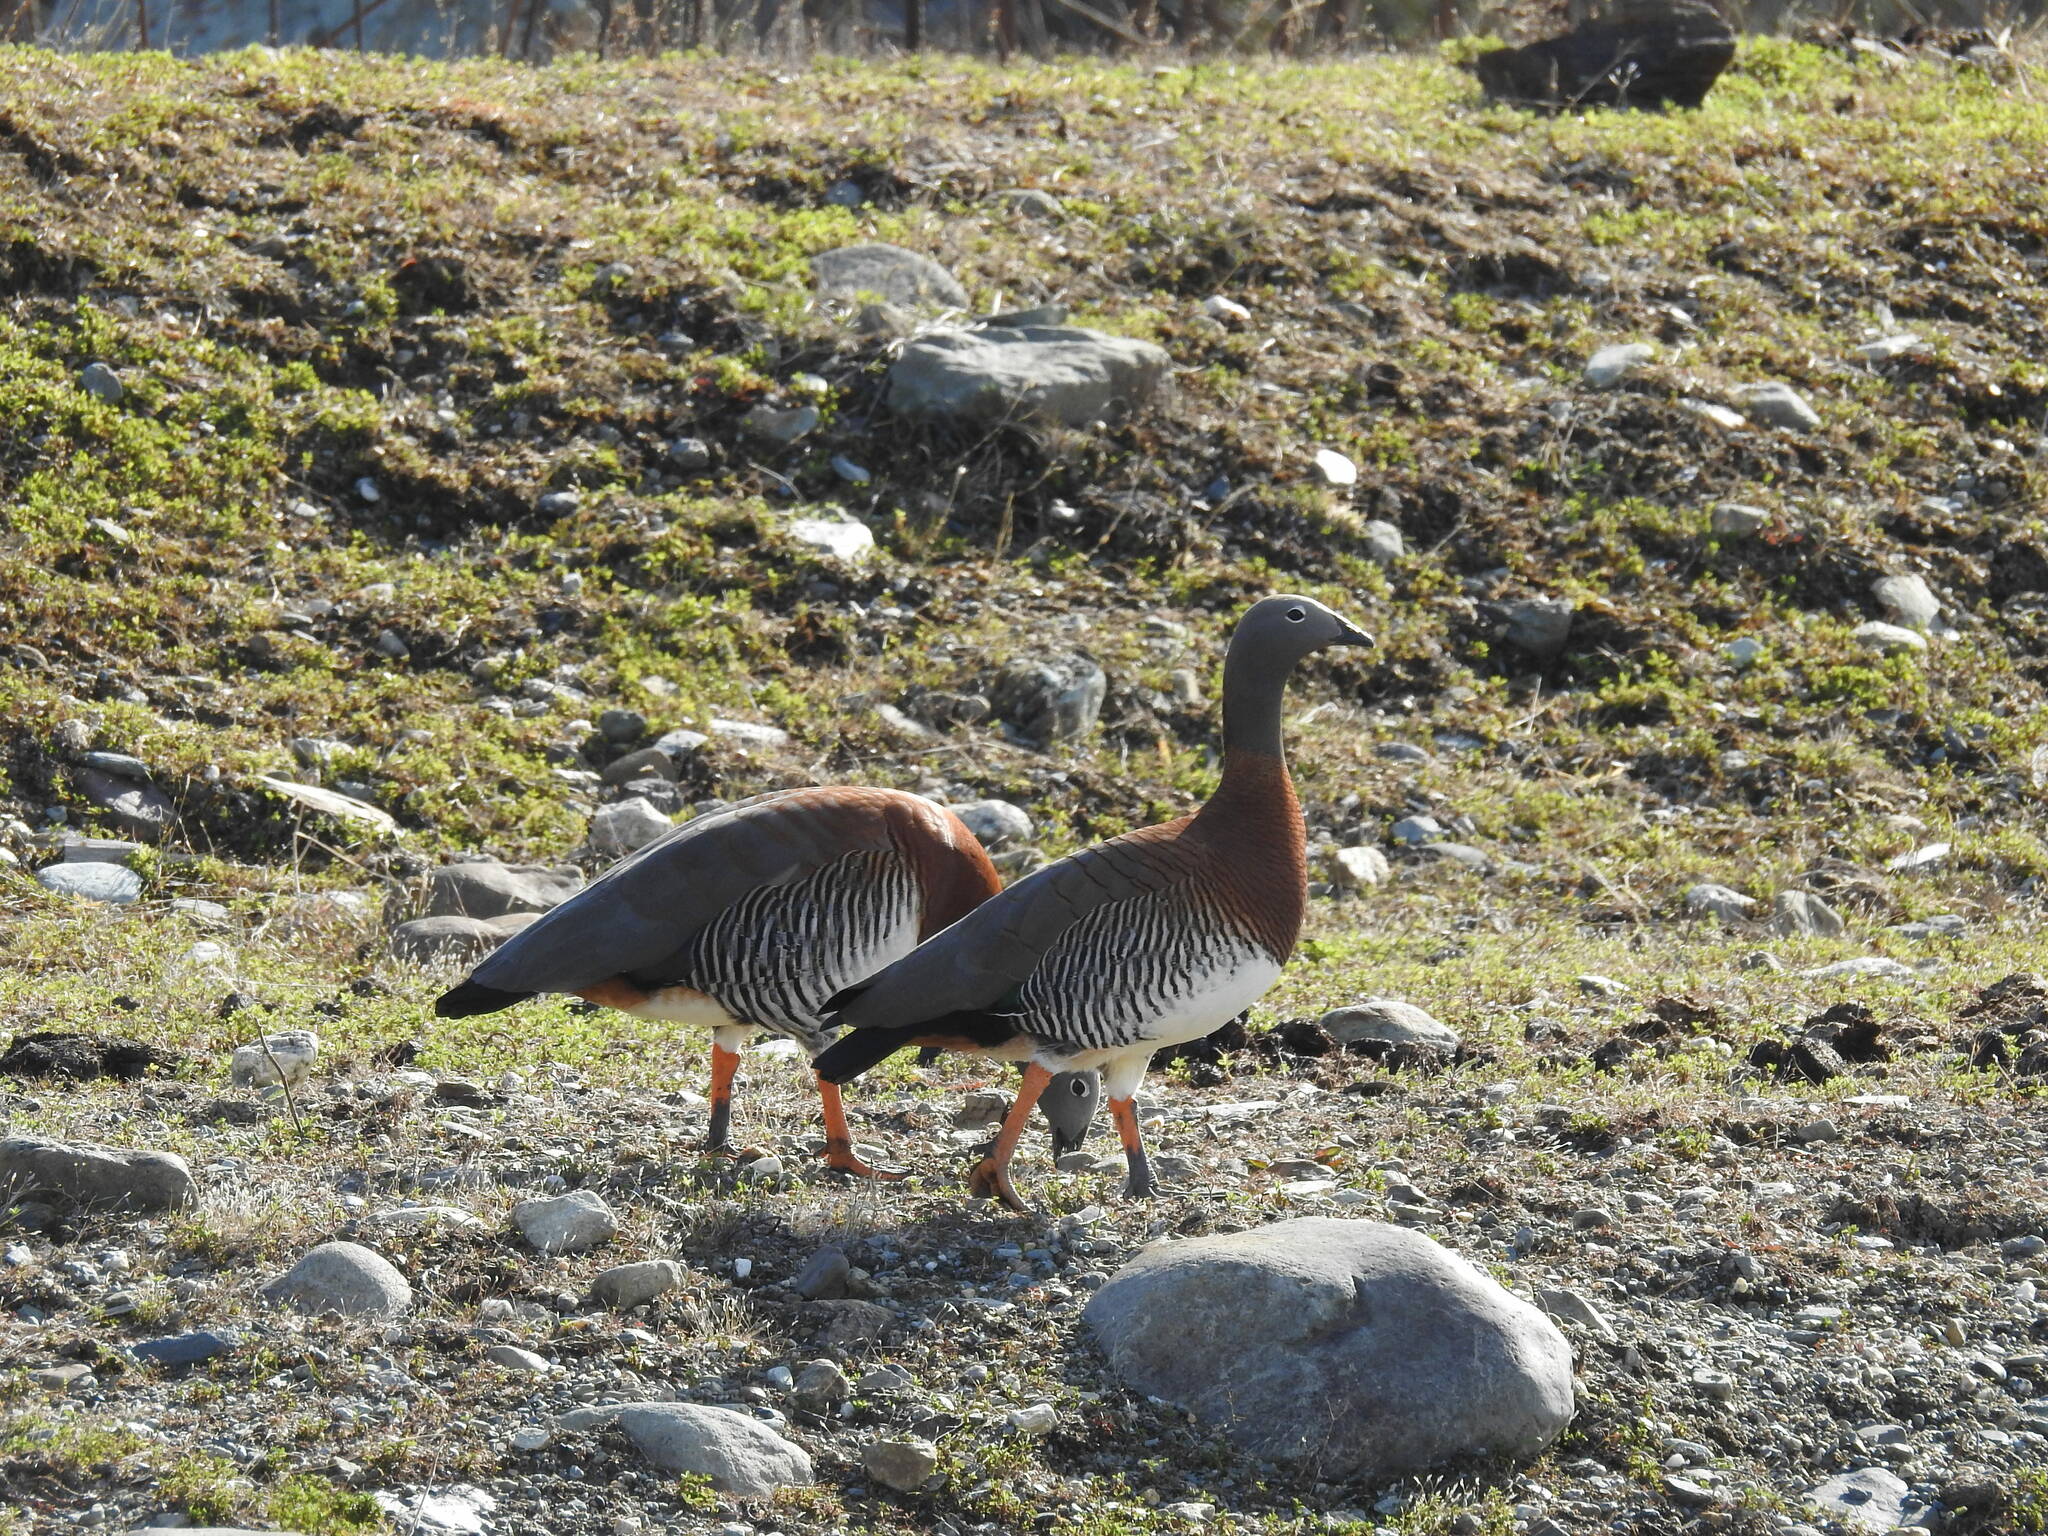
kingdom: Animalia
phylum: Chordata
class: Aves
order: Anseriformes
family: Anatidae
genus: Chloephaga
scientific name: Chloephaga poliocephala
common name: Ashy-headed goose
